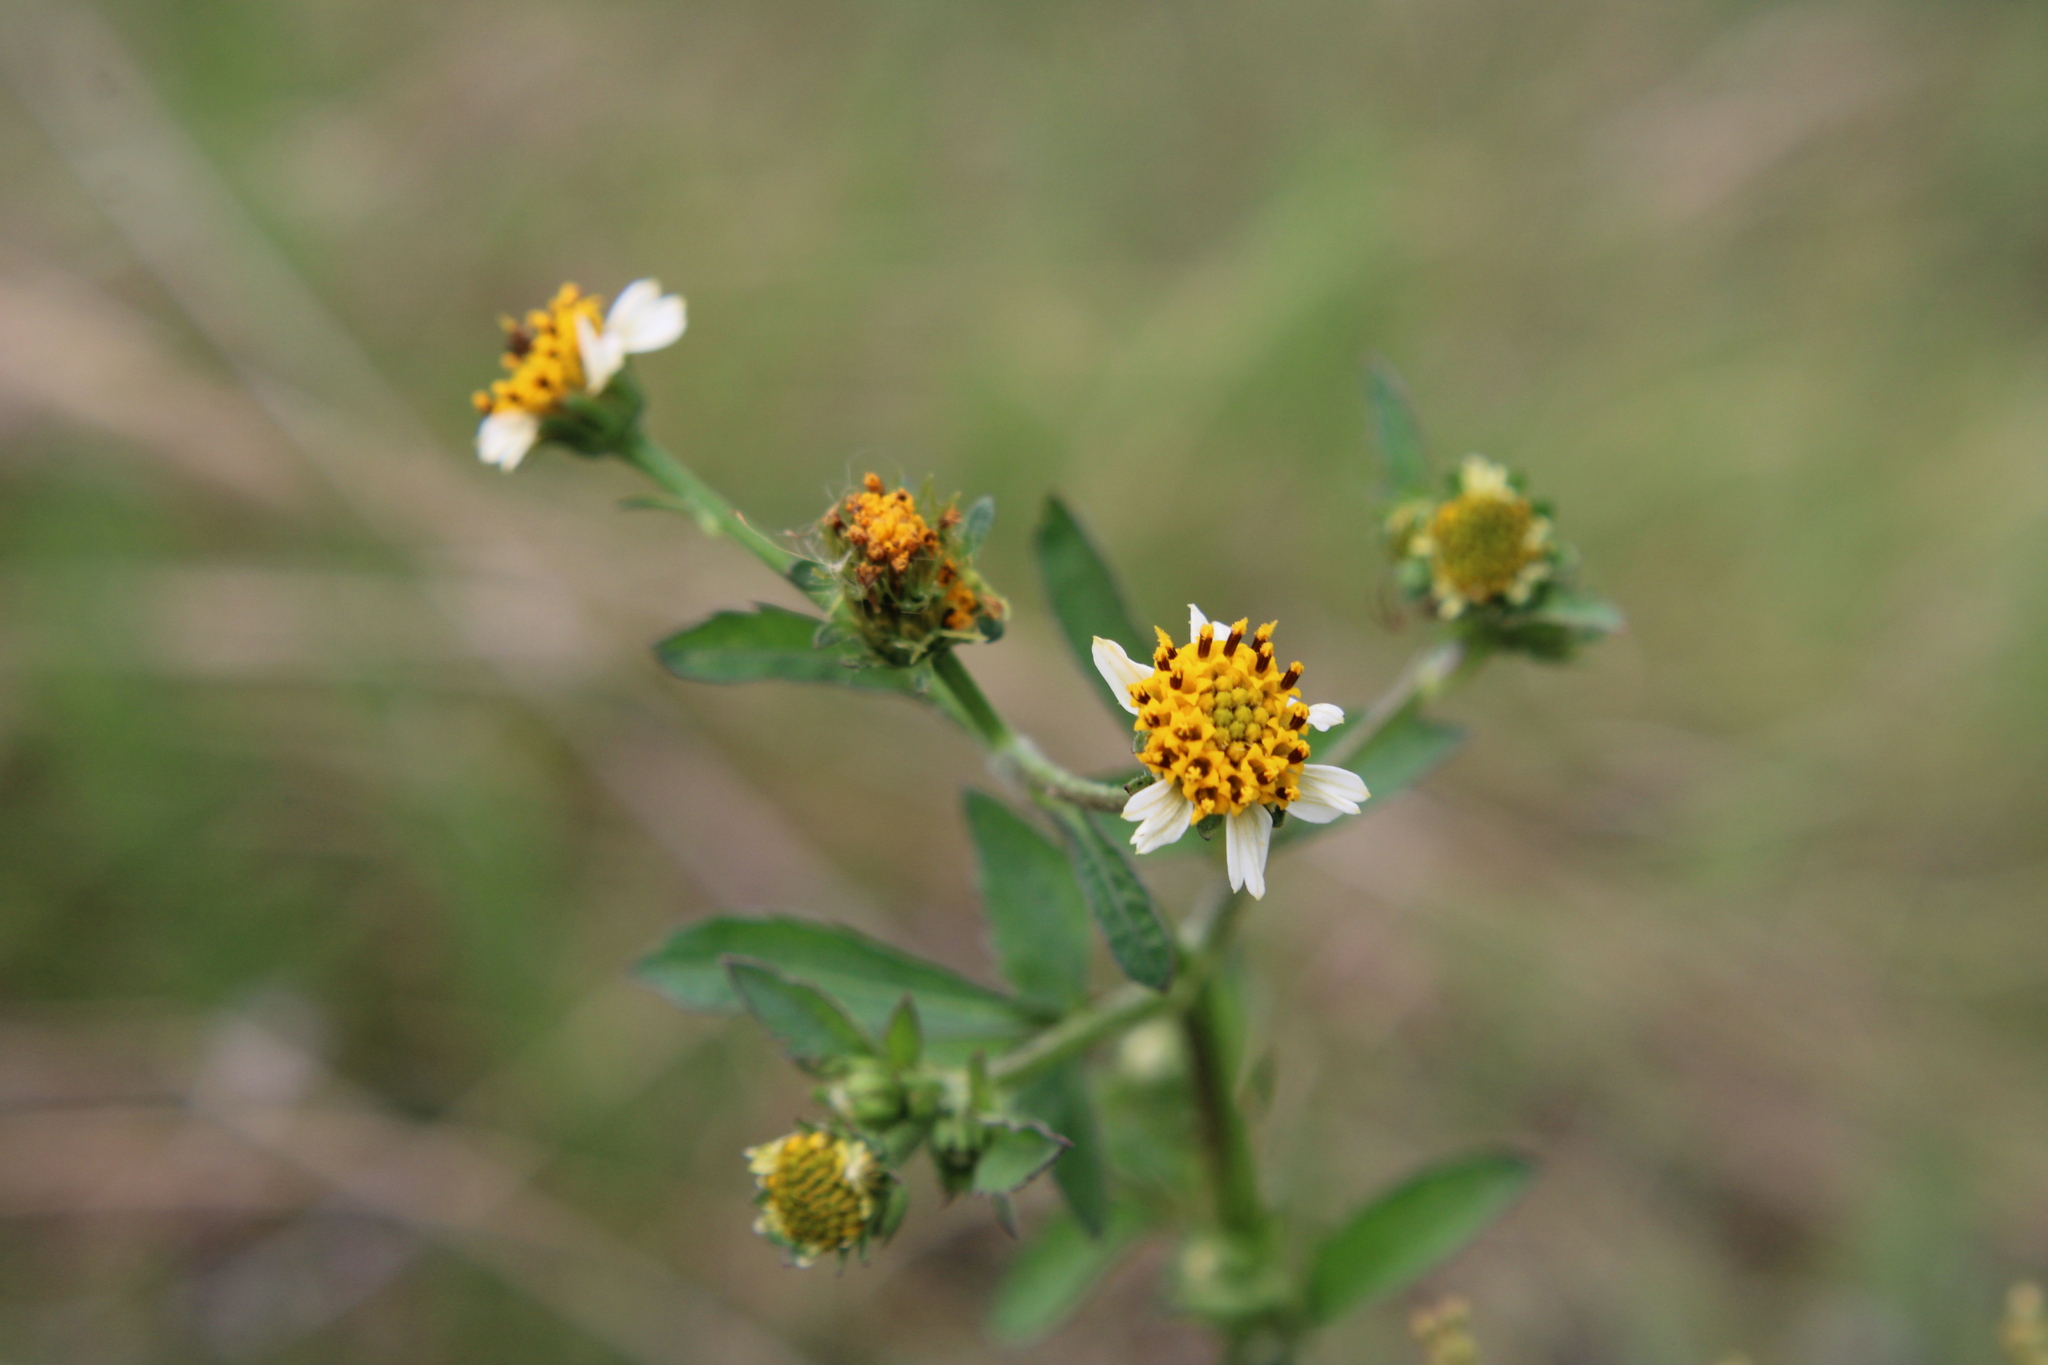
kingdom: Plantae
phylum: Tracheophyta
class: Magnoliopsida
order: Asterales
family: Asteraceae
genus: Bidens
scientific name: Bidens pilosa
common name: Black-jack
